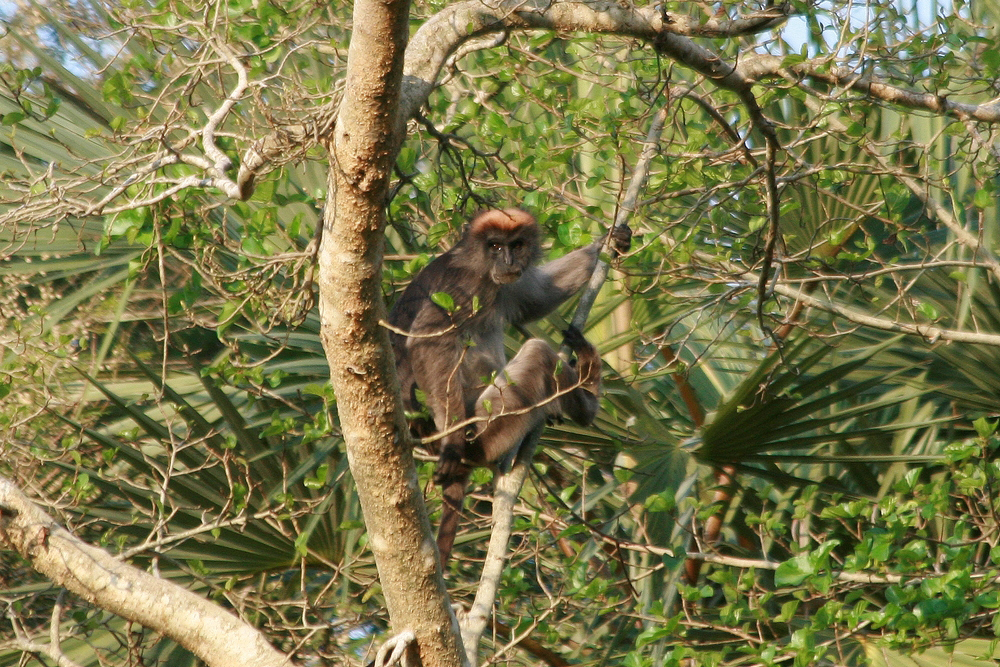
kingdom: Animalia
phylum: Chordata
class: Mammalia
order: Primates
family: Cercopithecidae
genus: Piliocolobus
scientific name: Piliocolobus rufomitratus
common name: Tana river red colobus
